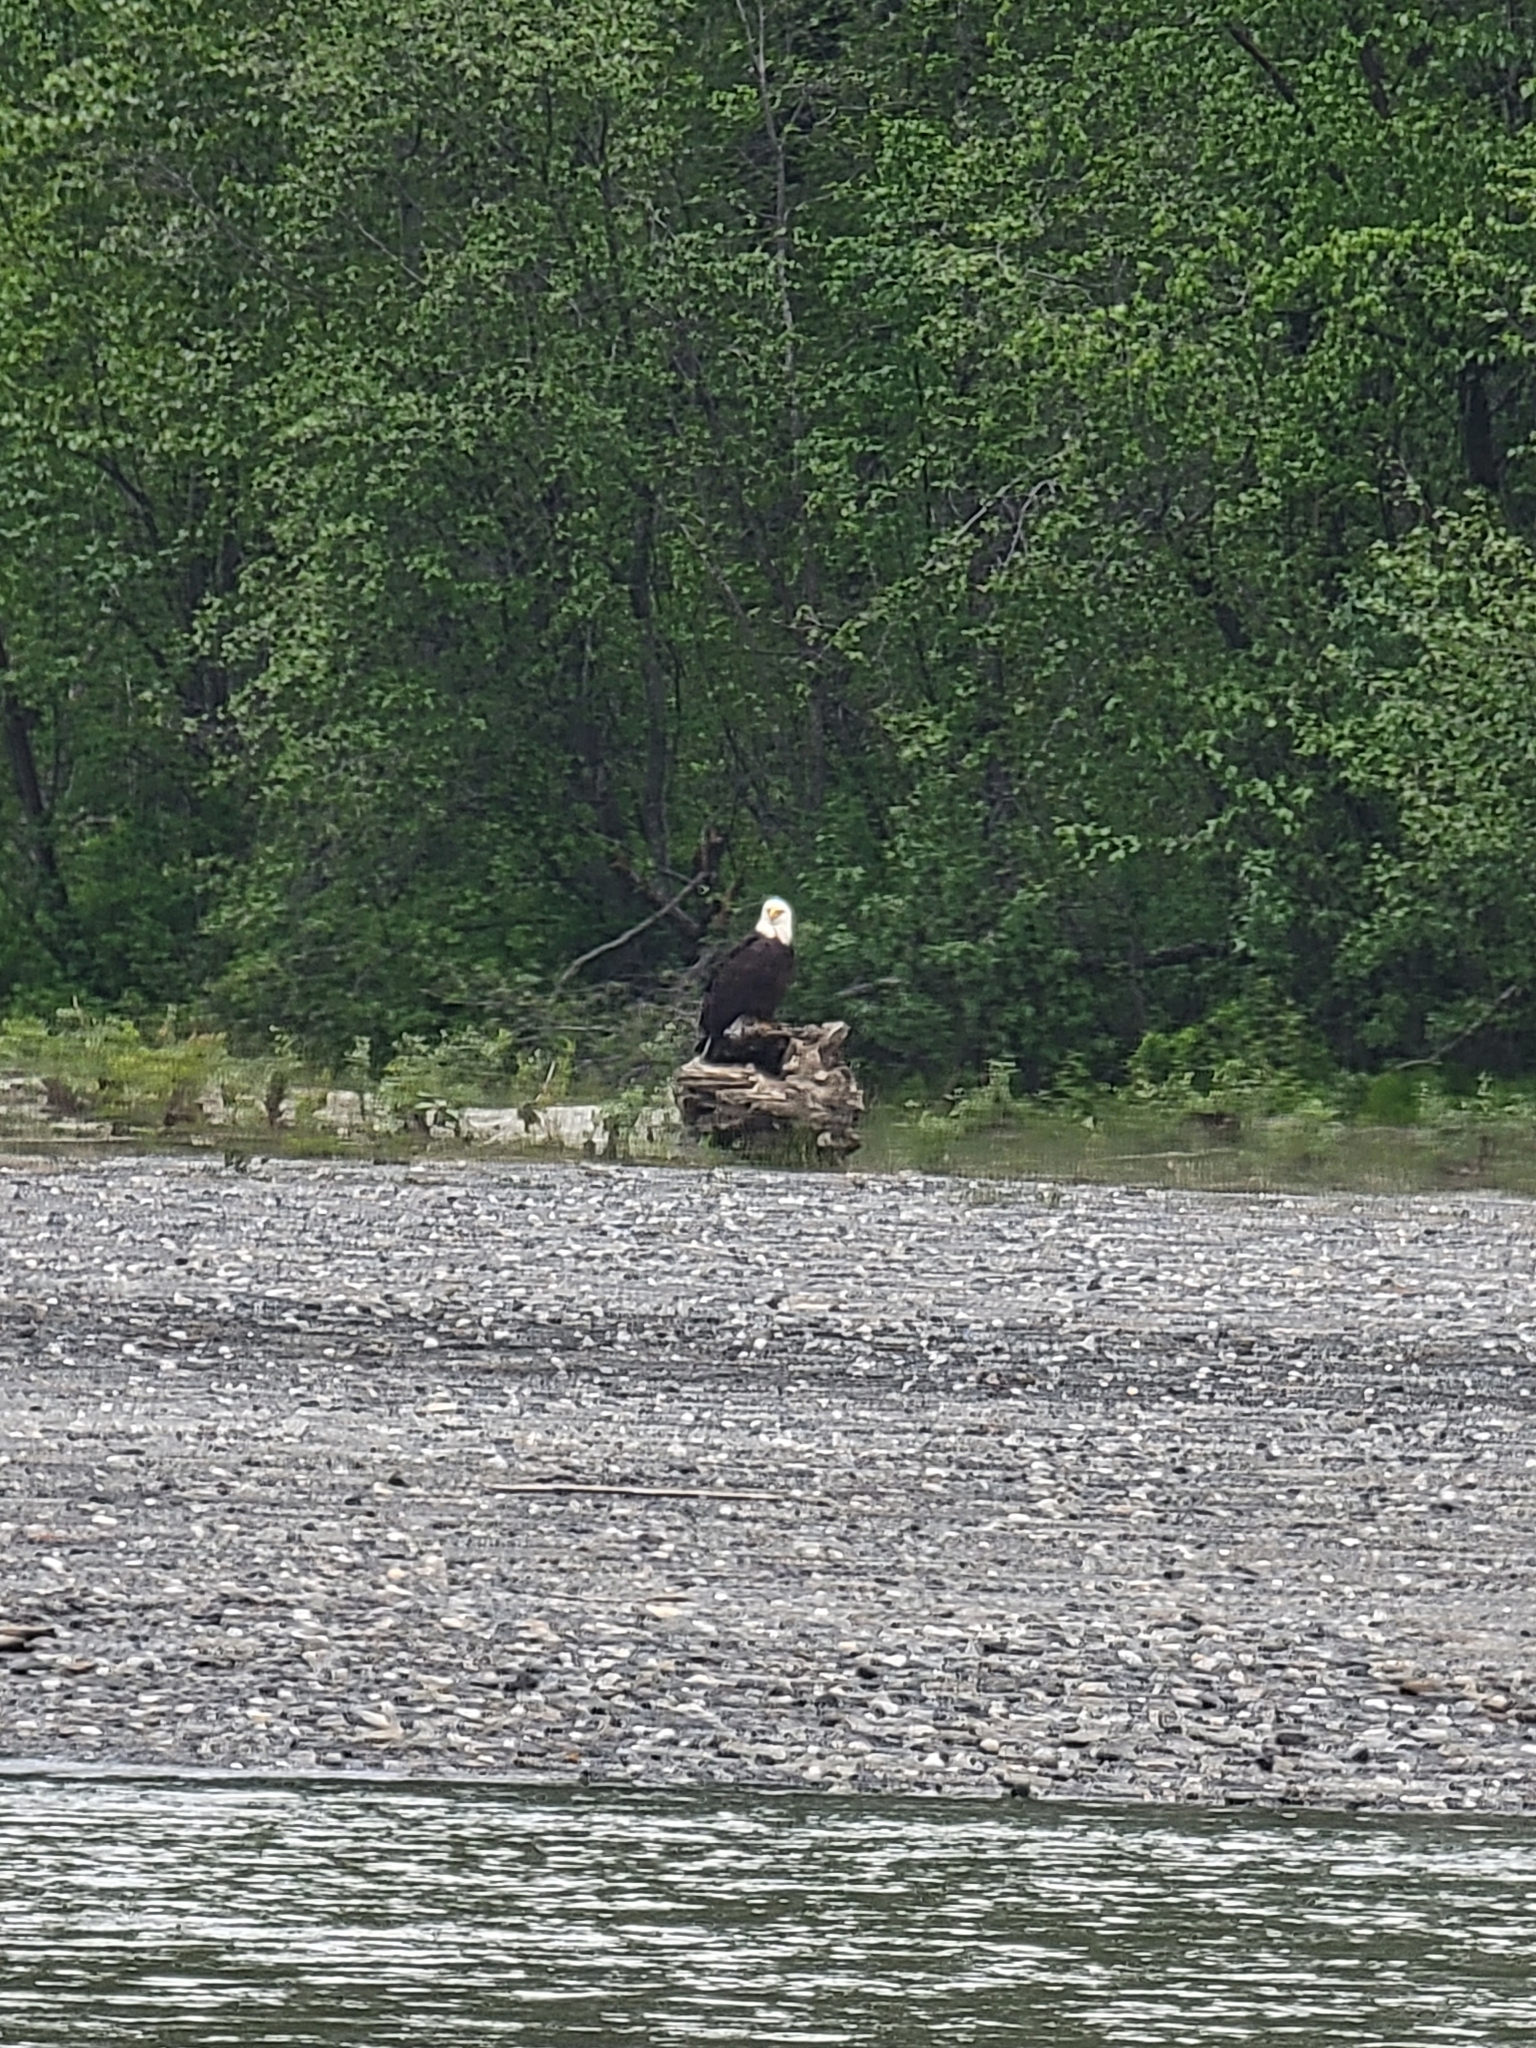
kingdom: Animalia
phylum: Chordata
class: Aves
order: Accipitriformes
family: Accipitridae
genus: Haliaeetus
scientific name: Haliaeetus leucocephalus
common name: Bald eagle
